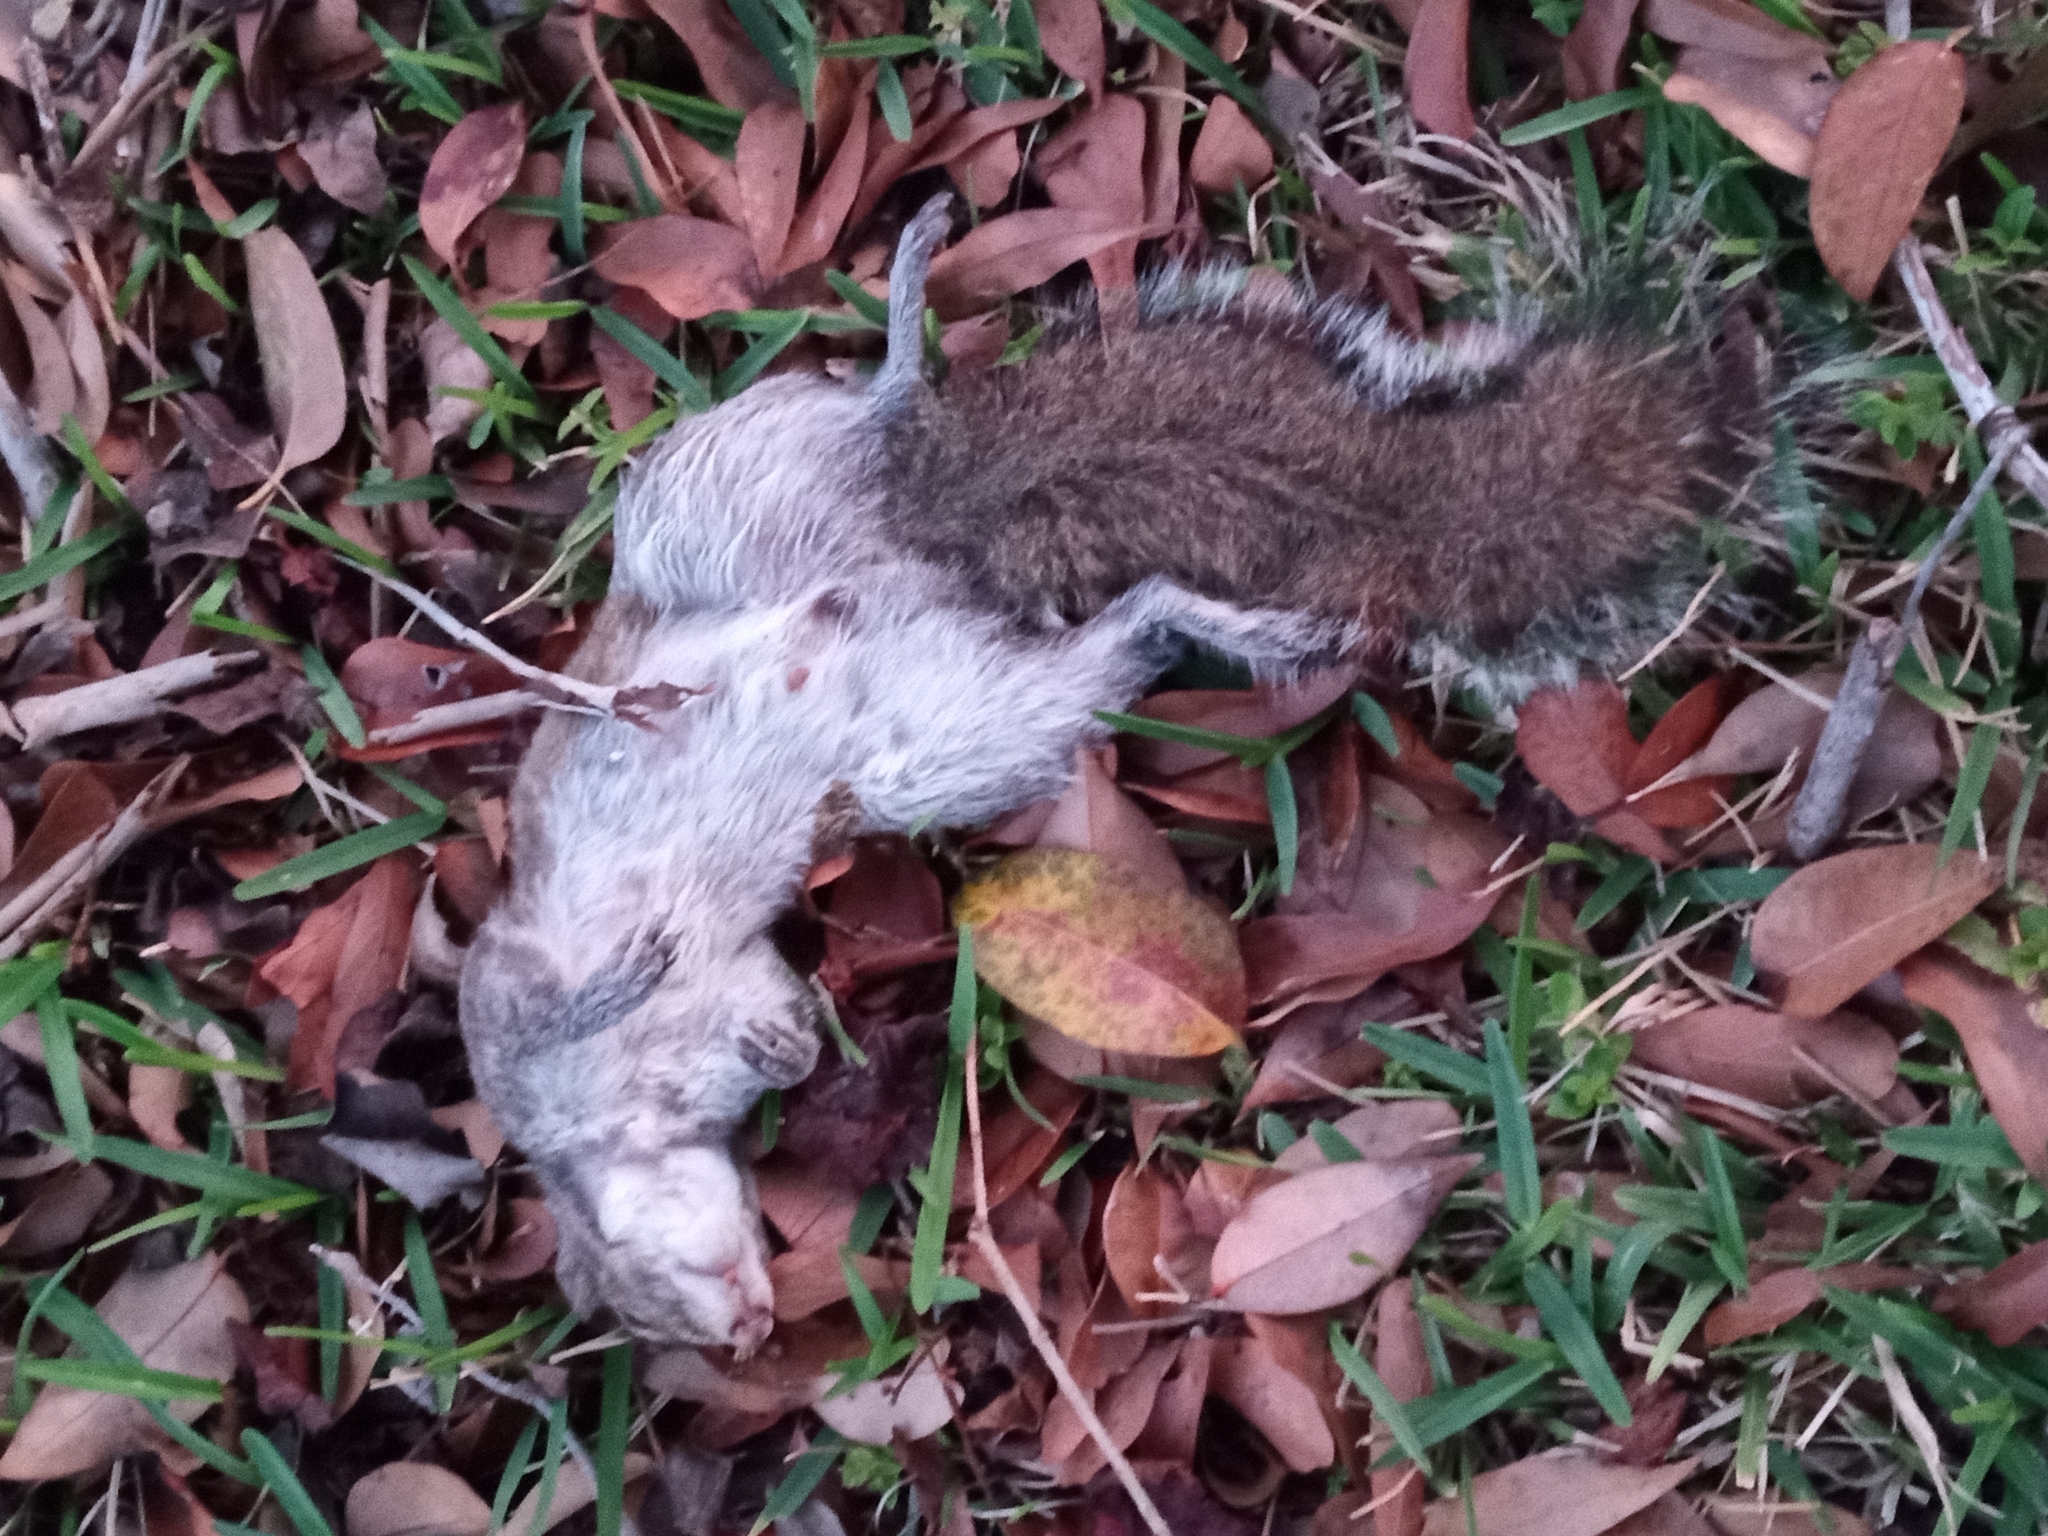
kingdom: Animalia
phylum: Chordata
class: Mammalia
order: Rodentia
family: Sciuridae
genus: Sciurus
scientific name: Sciurus carolinensis
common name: Eastern gray squirrel
